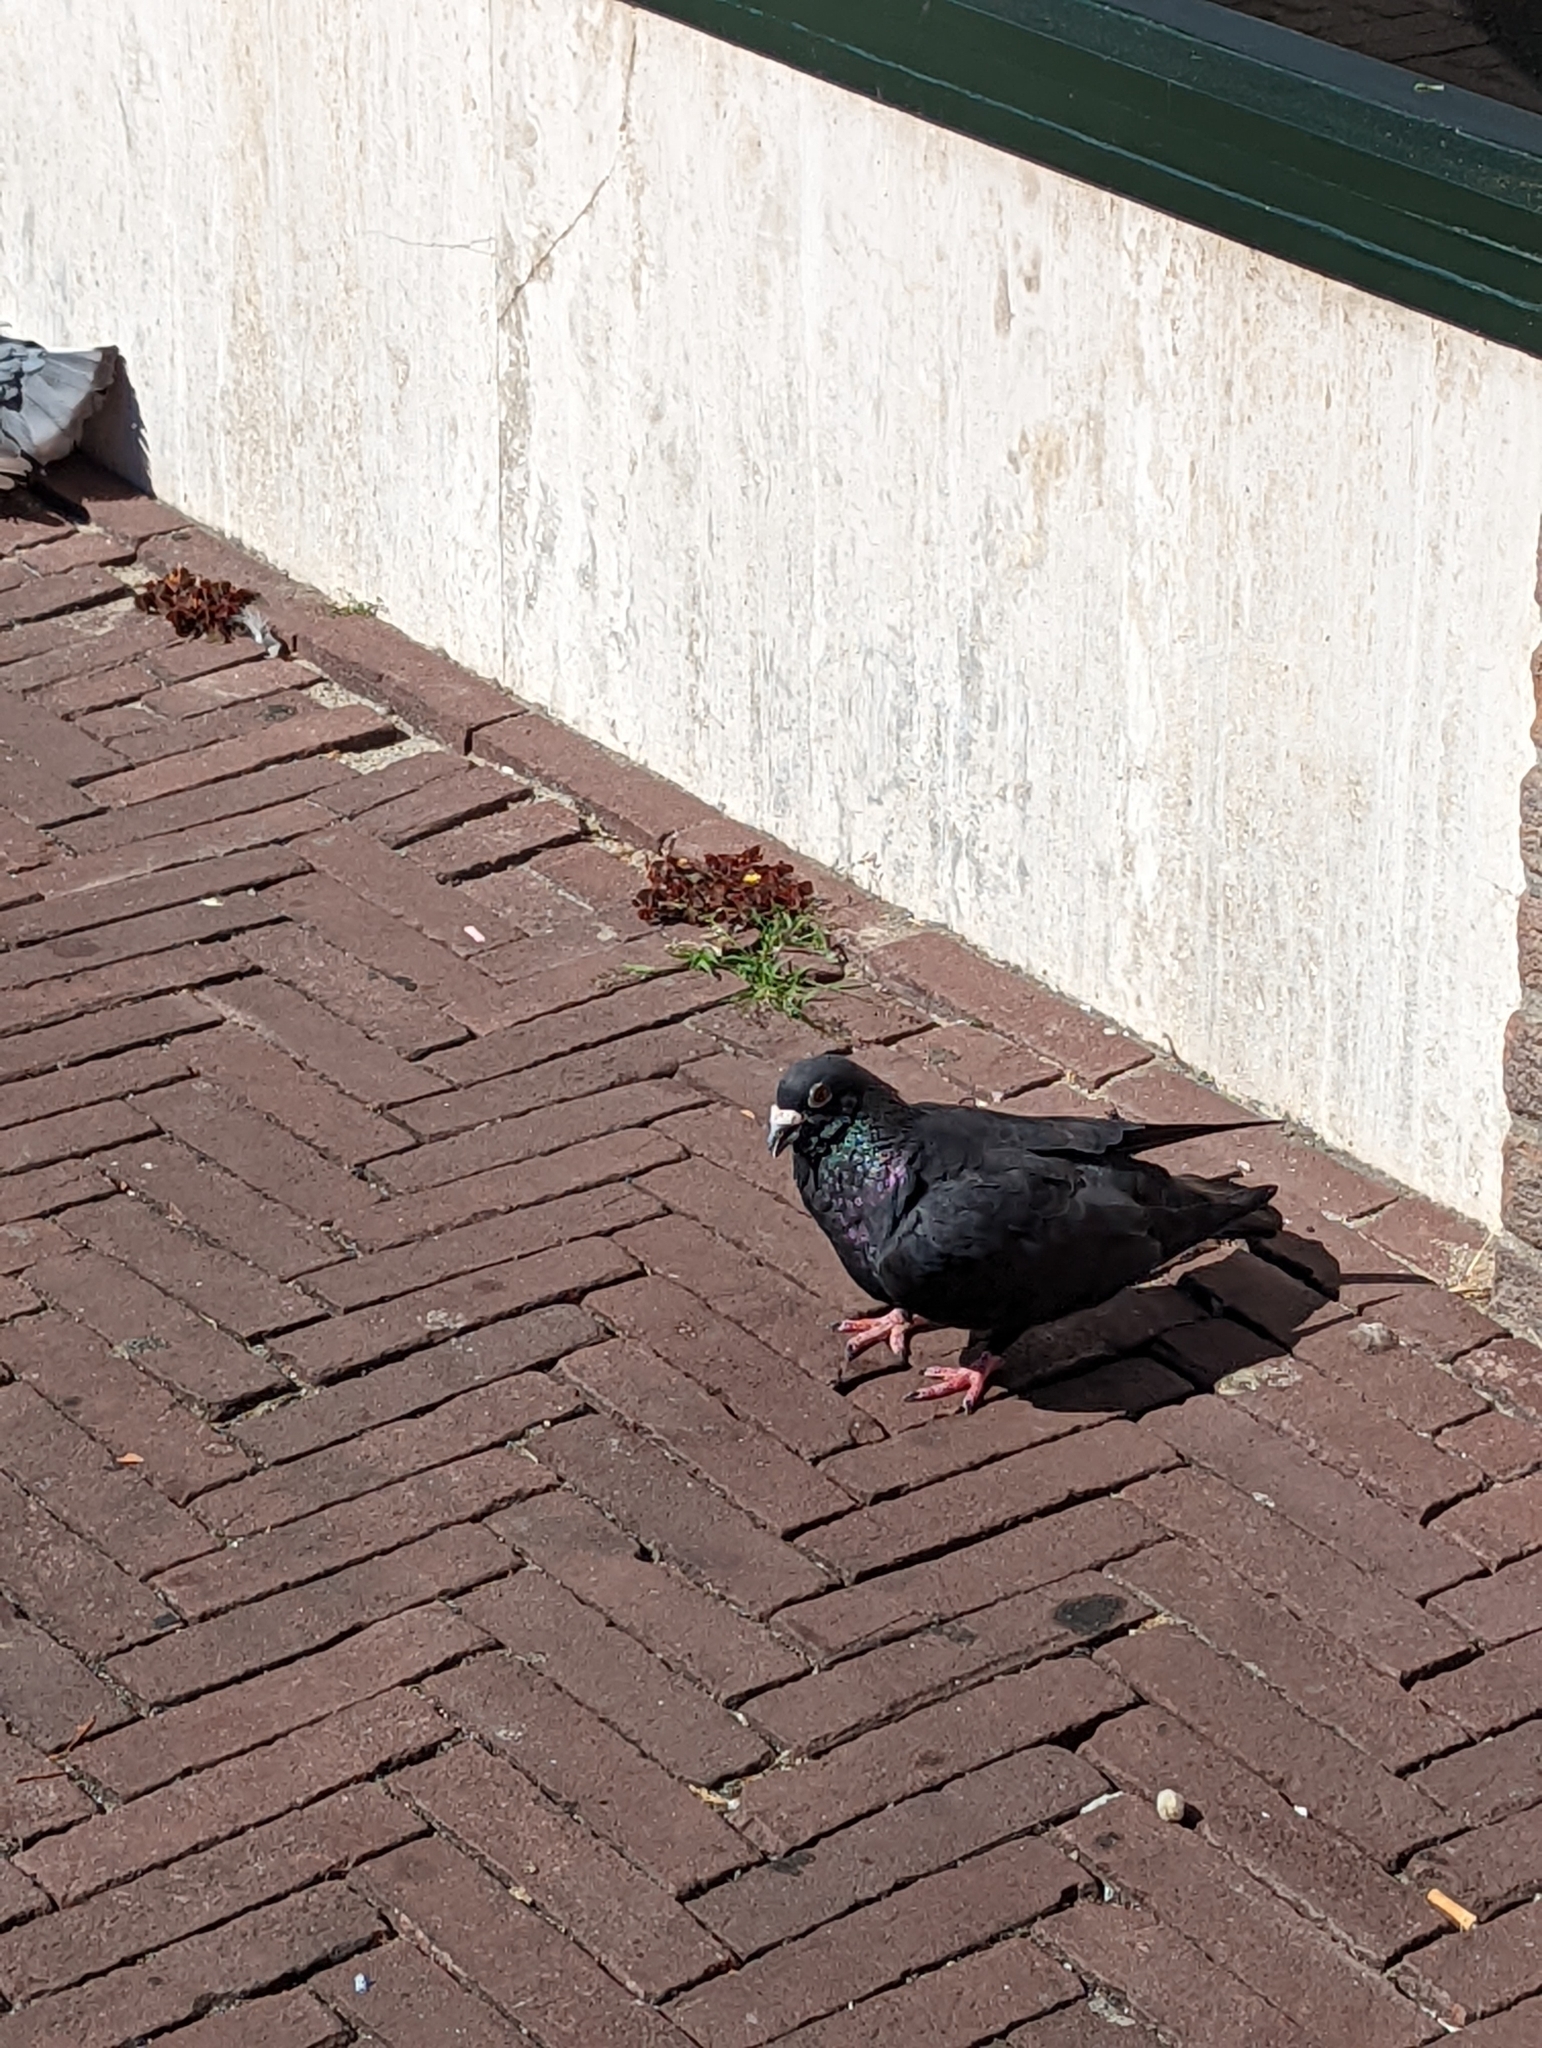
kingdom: Animalia
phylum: Chordata
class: Aves
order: Columbiformes
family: Columbidae
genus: Columba
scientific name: Columba livia
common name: Rock pigeon
